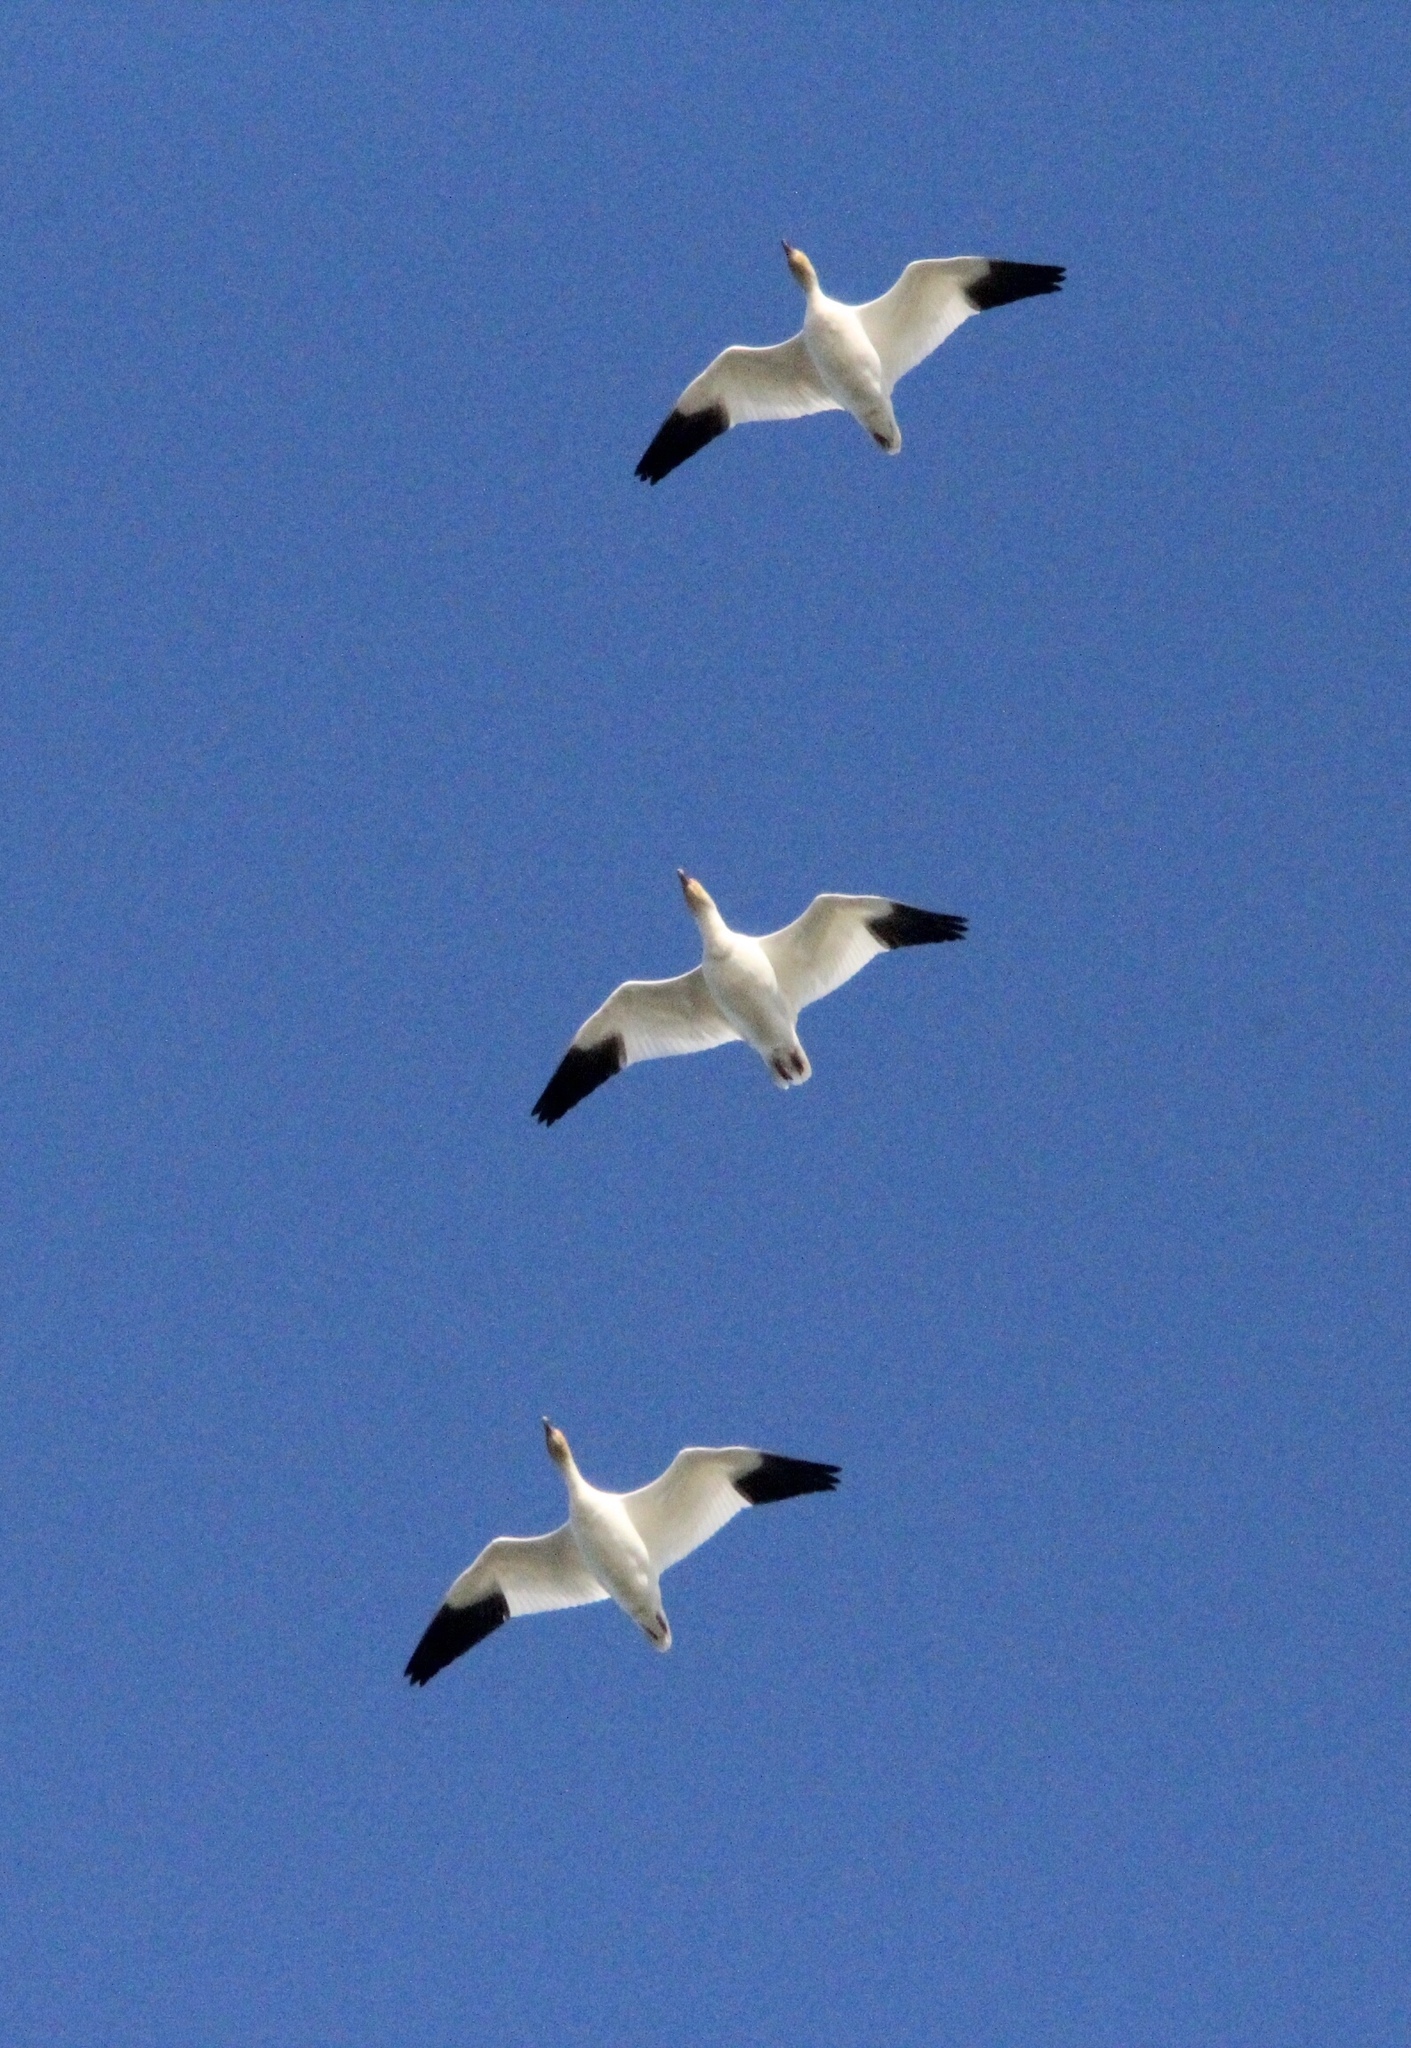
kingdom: Animalia
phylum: Chordata
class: Aves
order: Anseriformes
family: Anatidae
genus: Anser
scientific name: Anser caerulescens
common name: Snow goose
